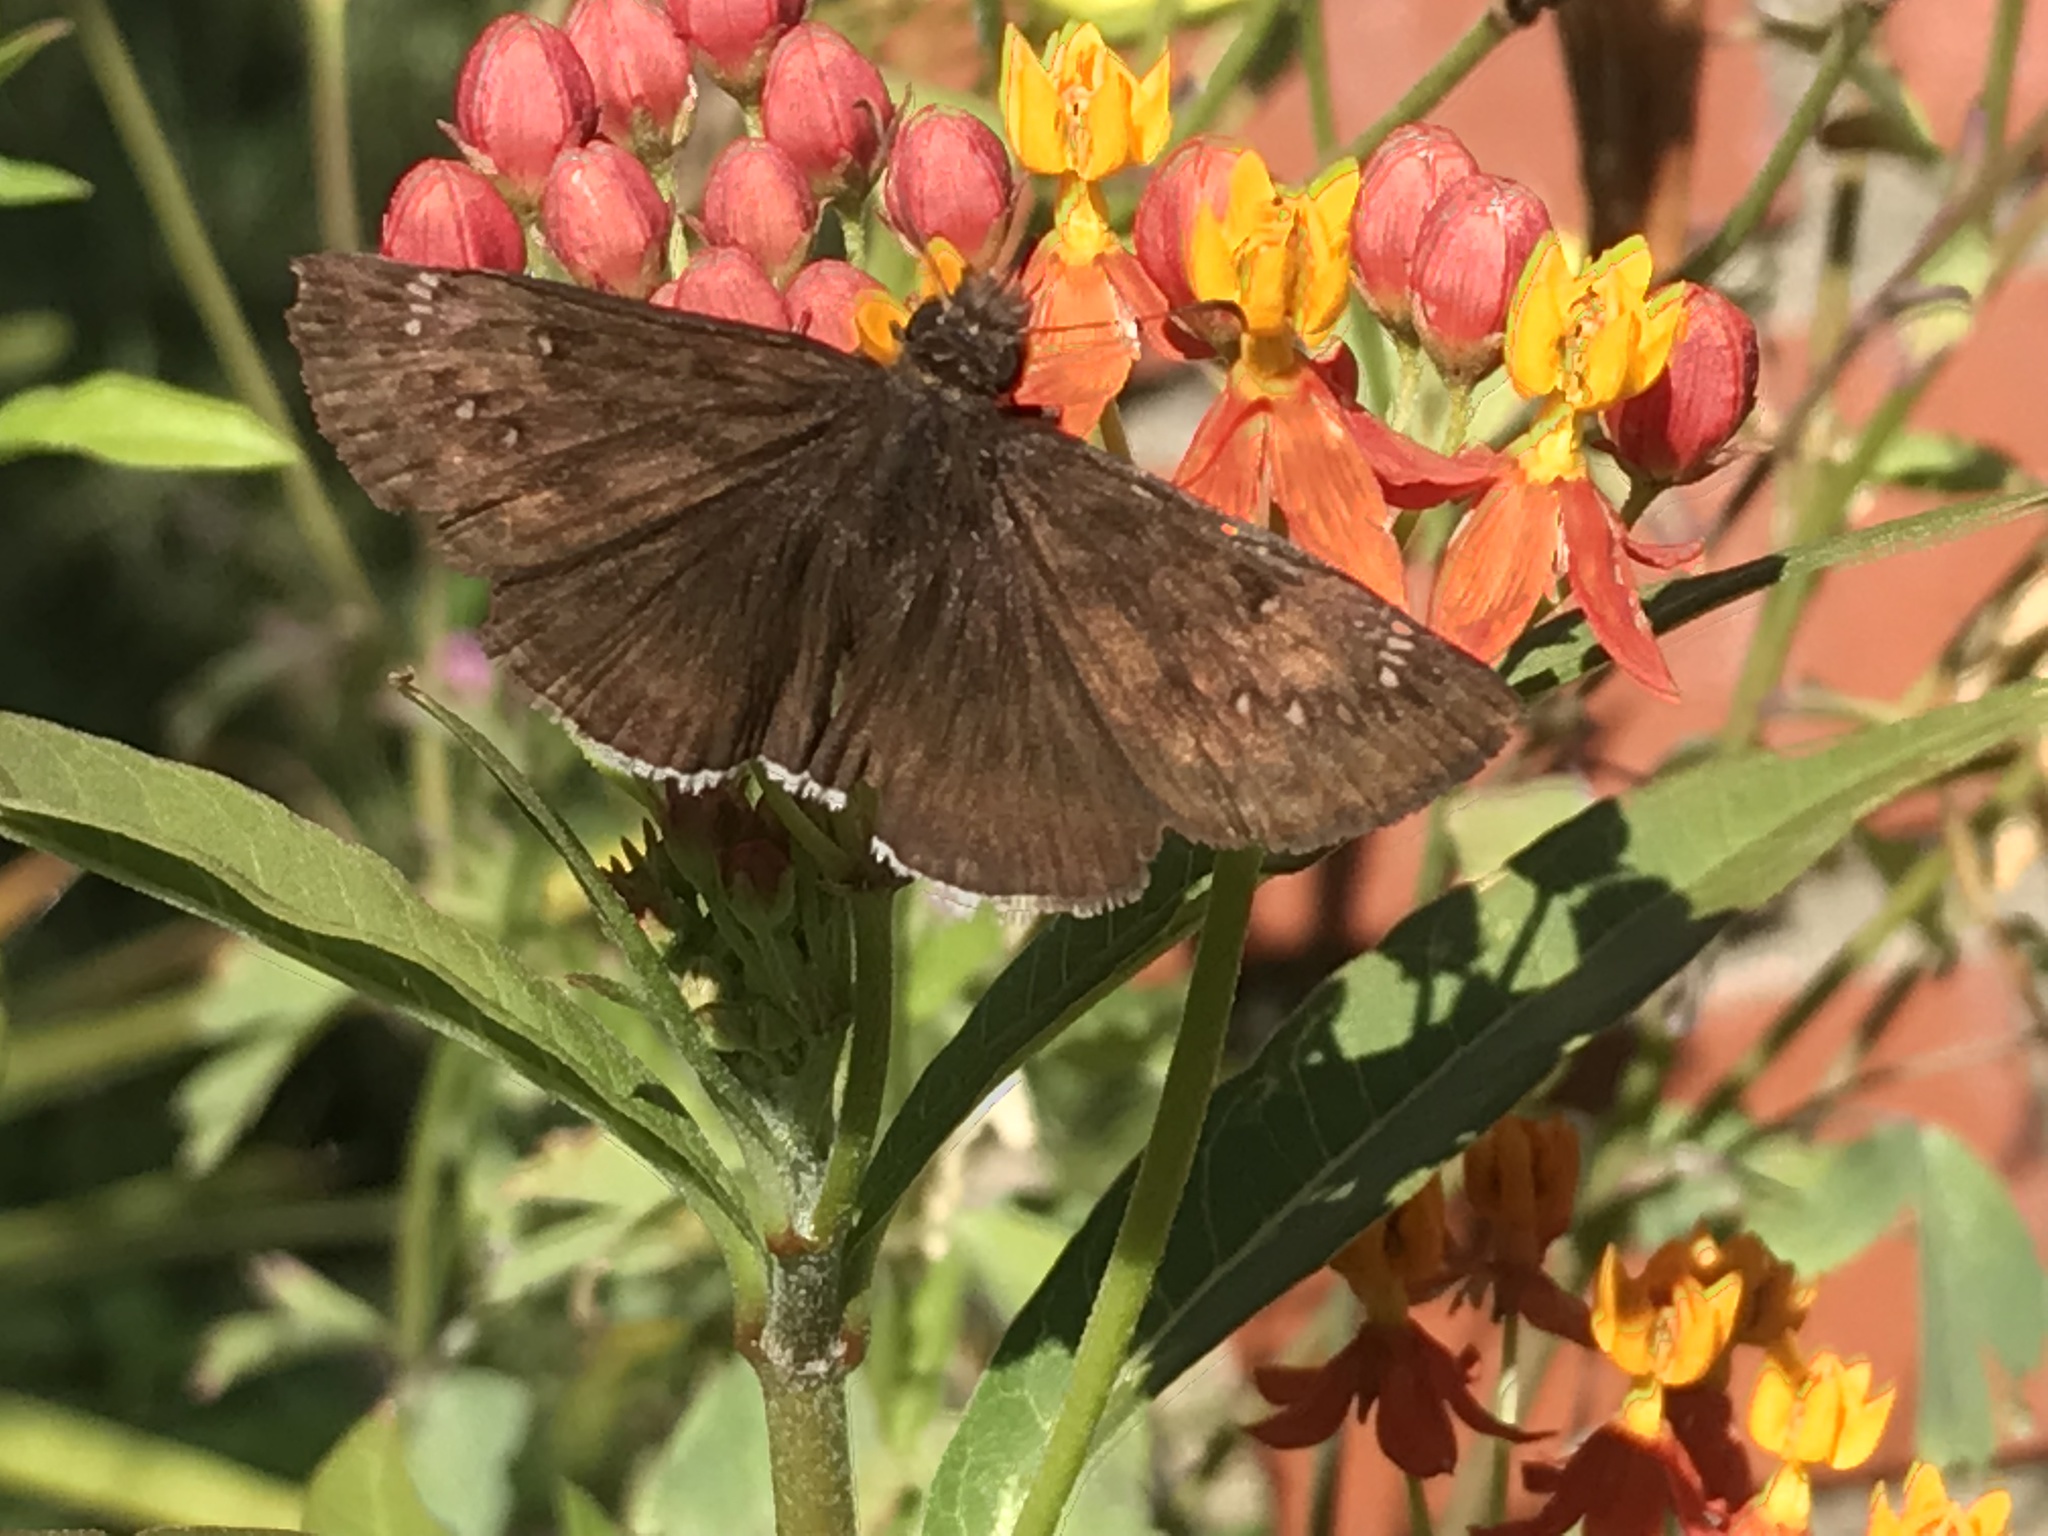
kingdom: Animalia
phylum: Arthropoda
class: Insecta
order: Lepidoptera
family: Hesperiidae
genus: Erynnis
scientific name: Erynnis tristis
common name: Mournful duskywing
